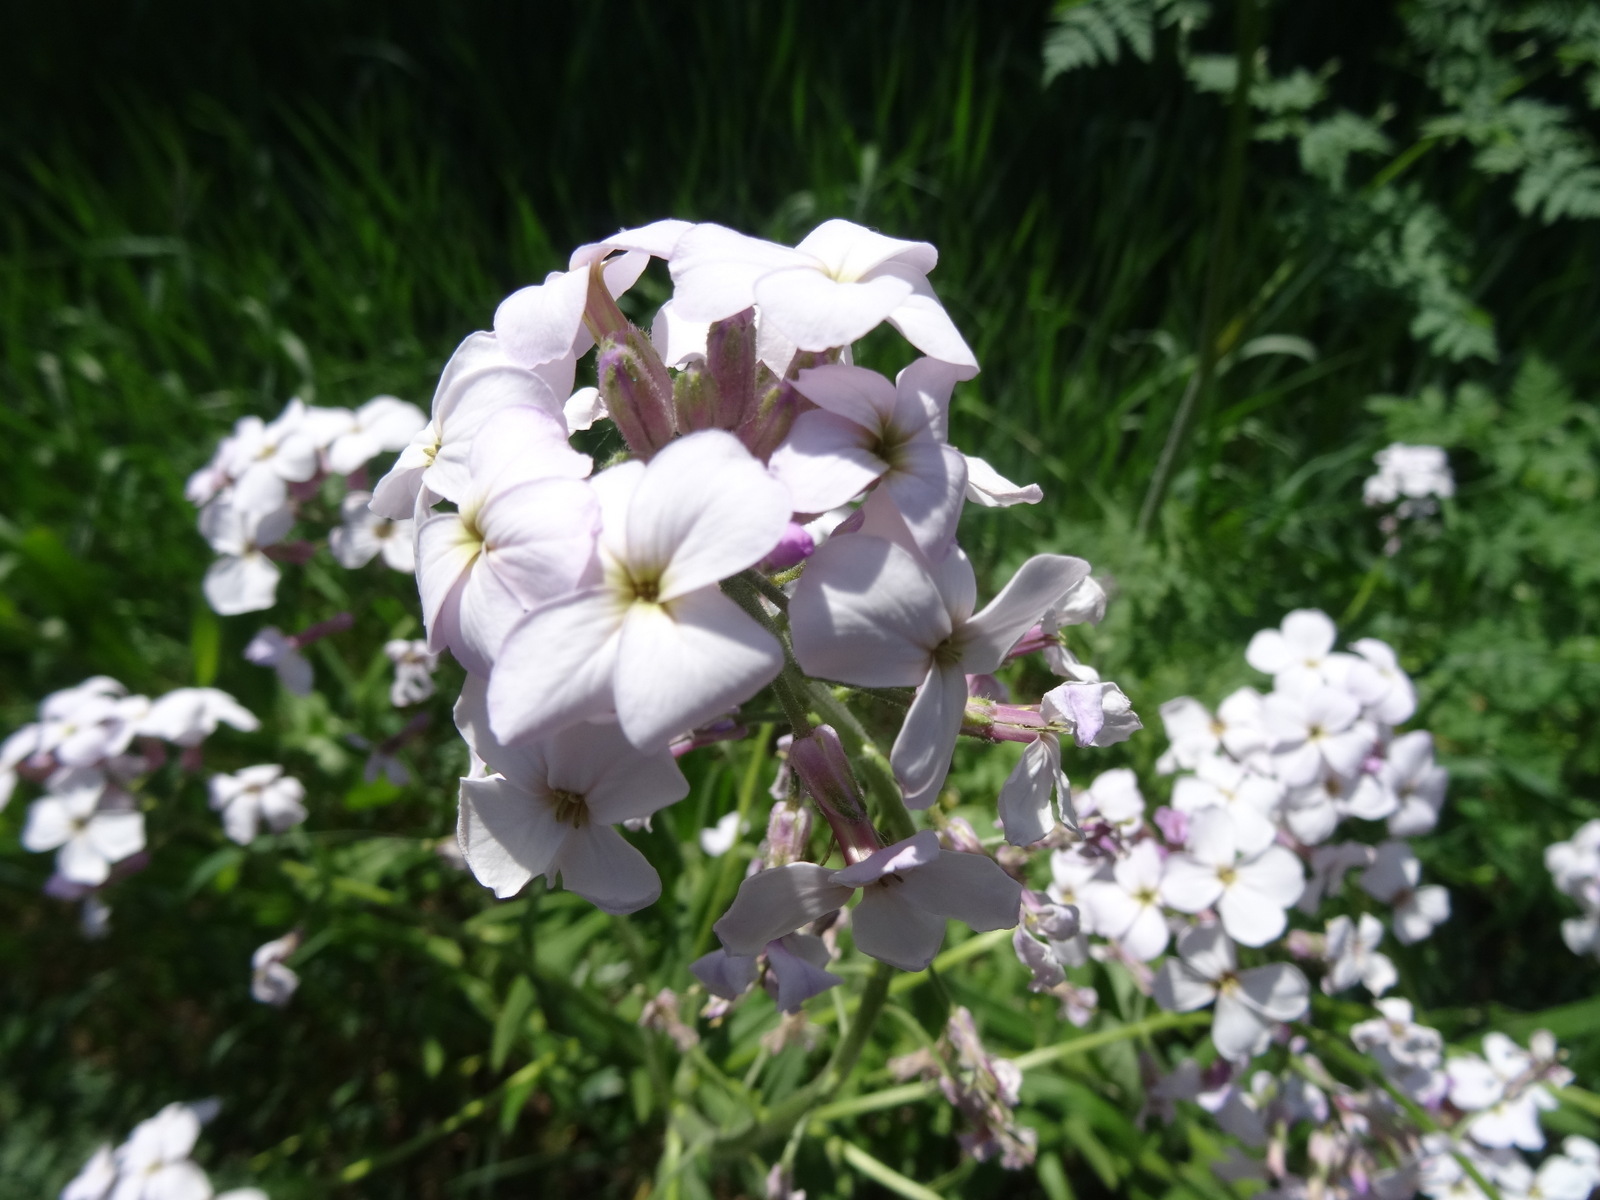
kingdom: Plantae
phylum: Tracheophyta
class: Magnoliopsida
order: Brassicales
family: Brassicaceae
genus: Hesperis
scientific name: Hesperis matronalis
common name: Dame's-violet
